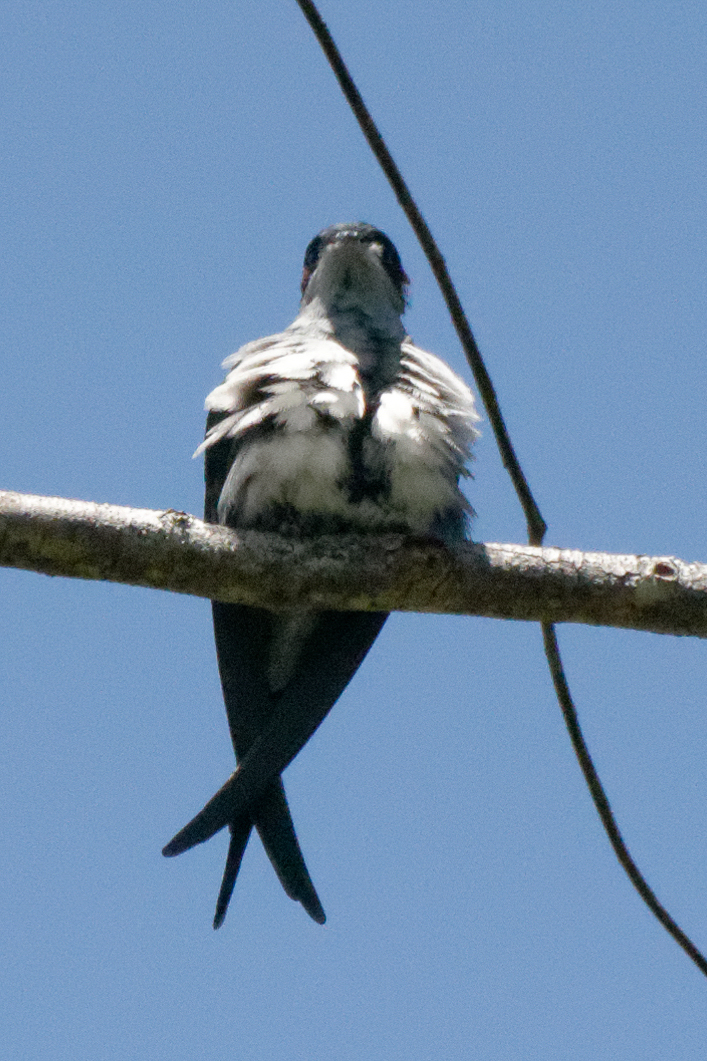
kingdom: Animalia
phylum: Chordata
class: Aves
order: Apodiformes
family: Hemiprocnidae
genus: Hemiprocne
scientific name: Hemiprocne longipennis
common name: Grey-rumped treeswift
